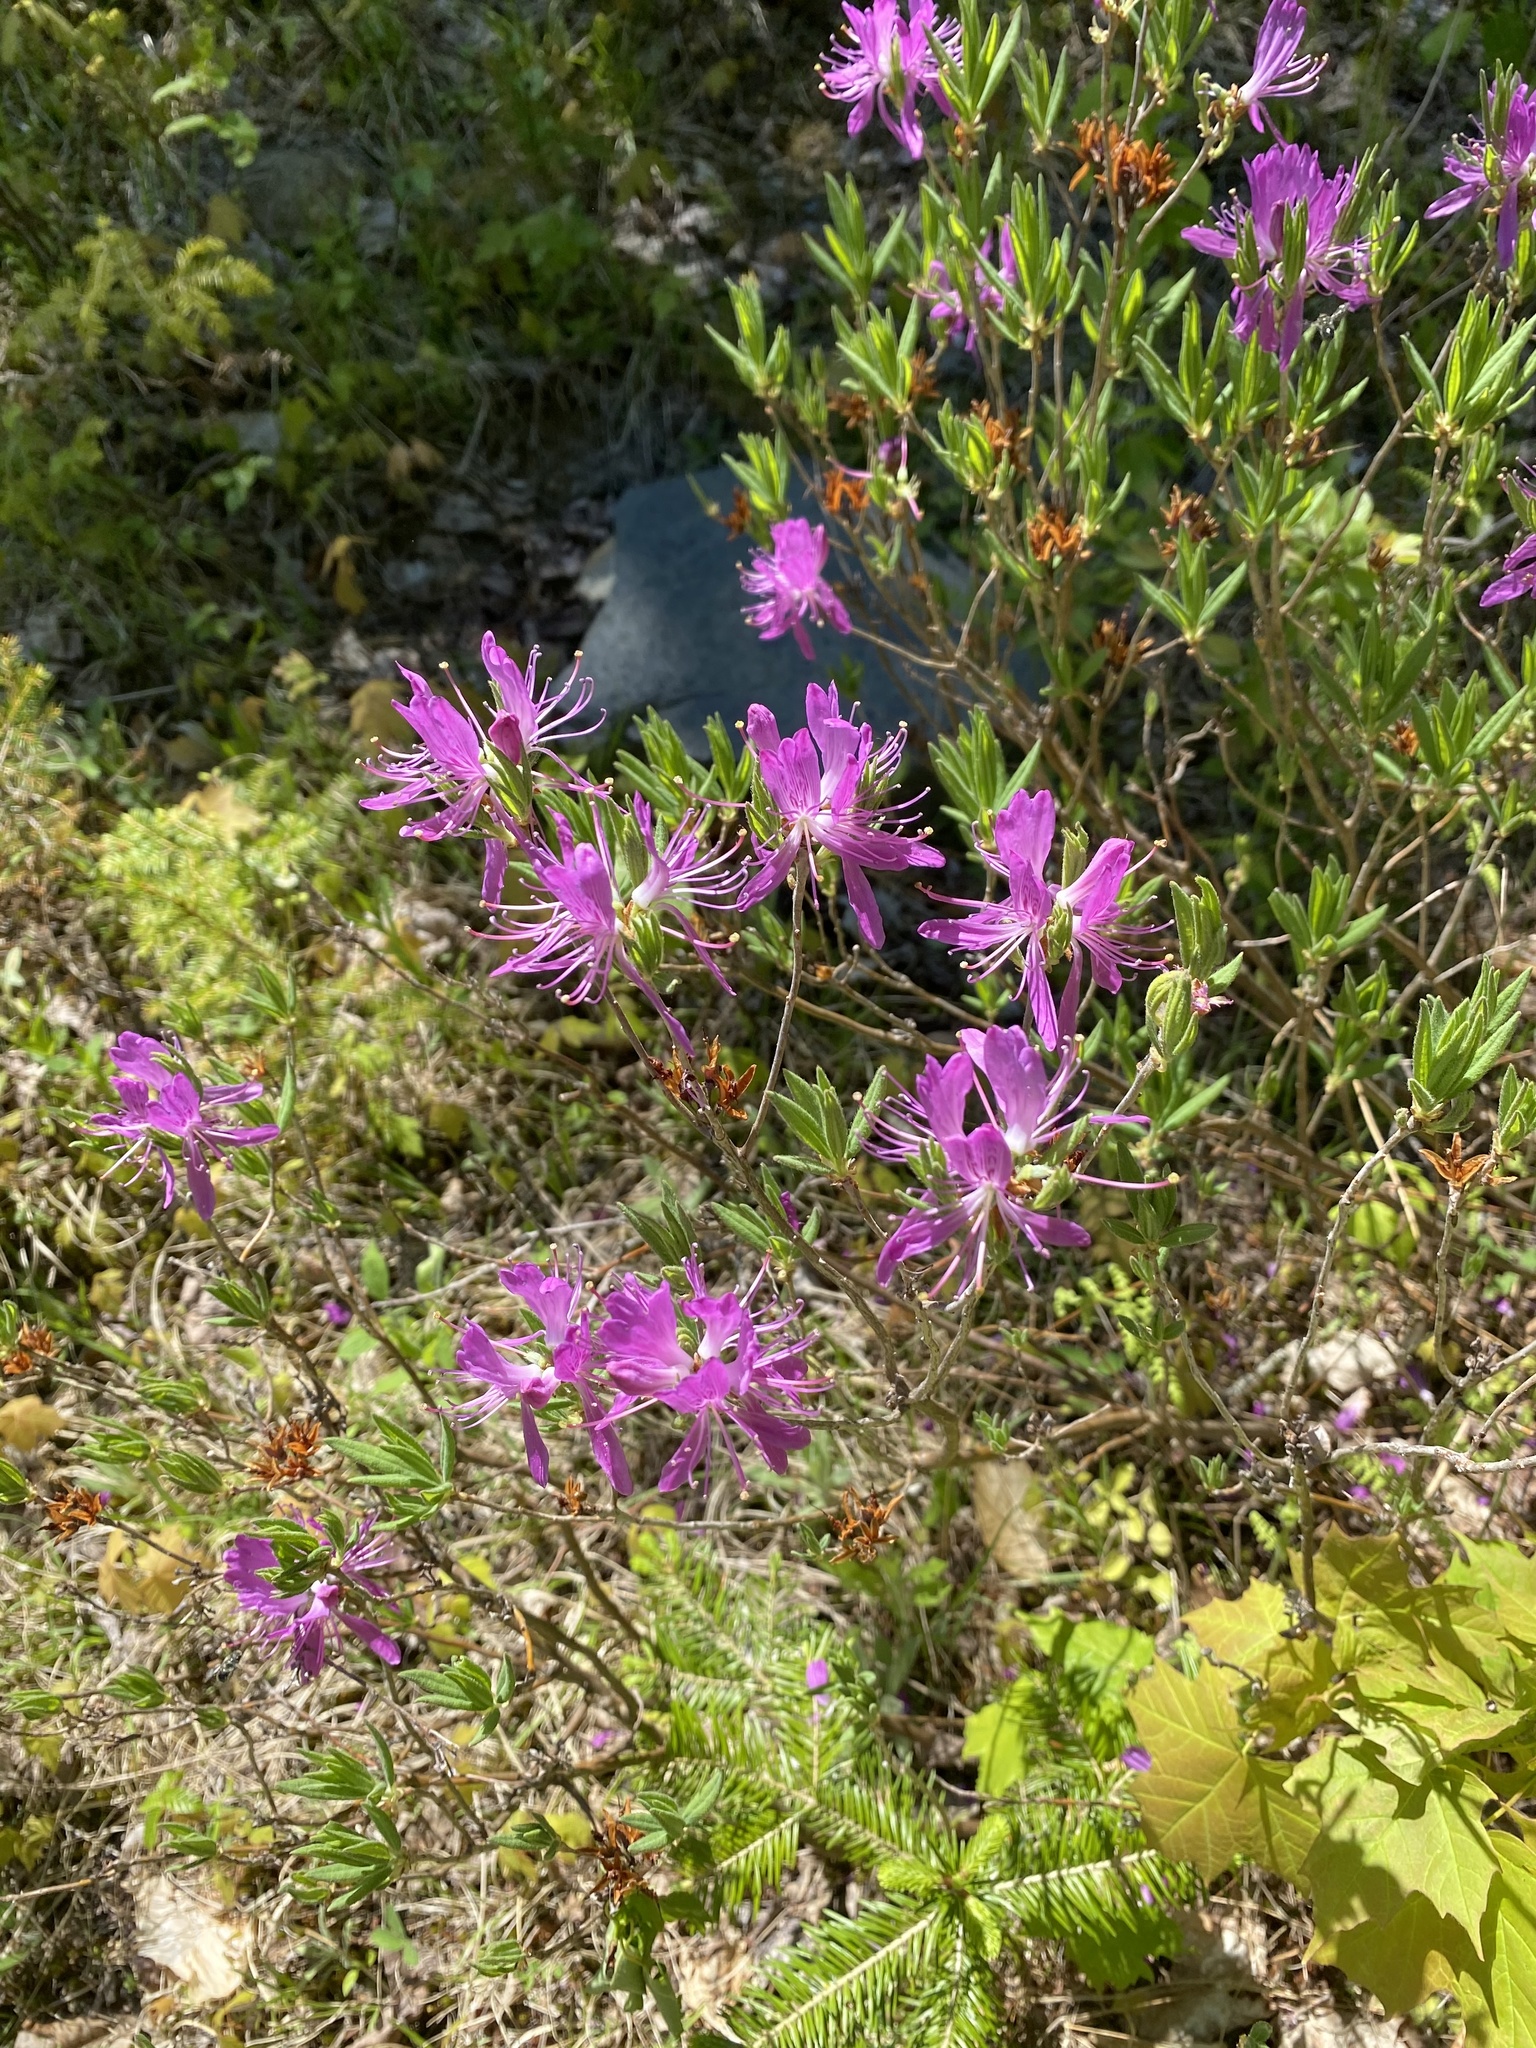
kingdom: Plantae
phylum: Tracheophyta
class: Magnoliopsida
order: Ericales
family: Ericaceae
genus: Rhododendron
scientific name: Rhododendron canadense
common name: Rhodora
